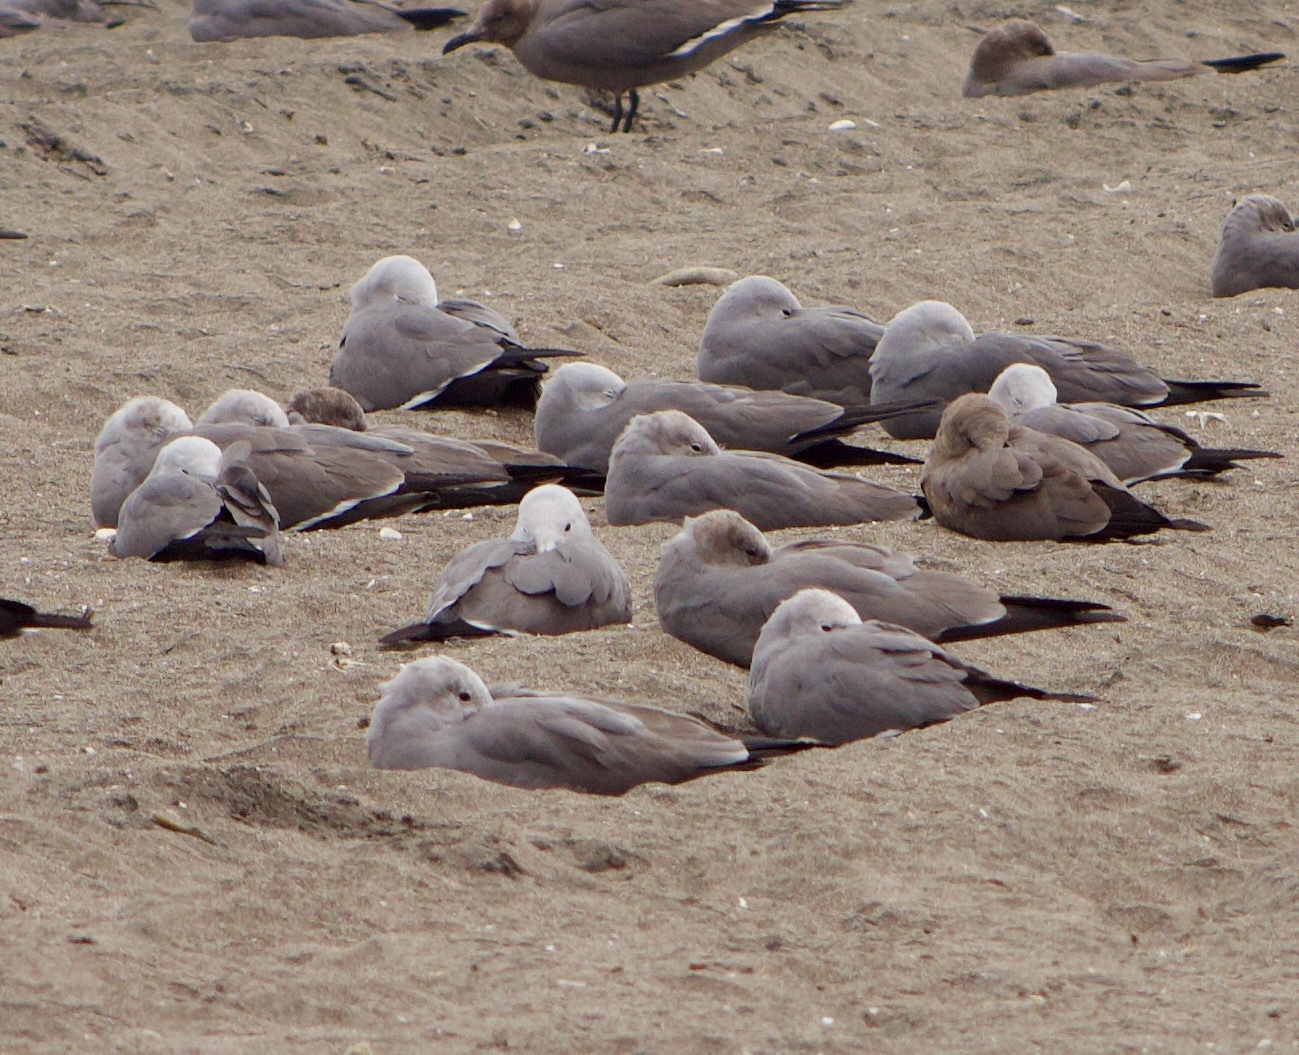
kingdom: Animalia
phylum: Chordata
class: Aves
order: Charadriiformes
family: Laridae
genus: Leucophaeus
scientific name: Leucophaeus modestus
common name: Gray gull
